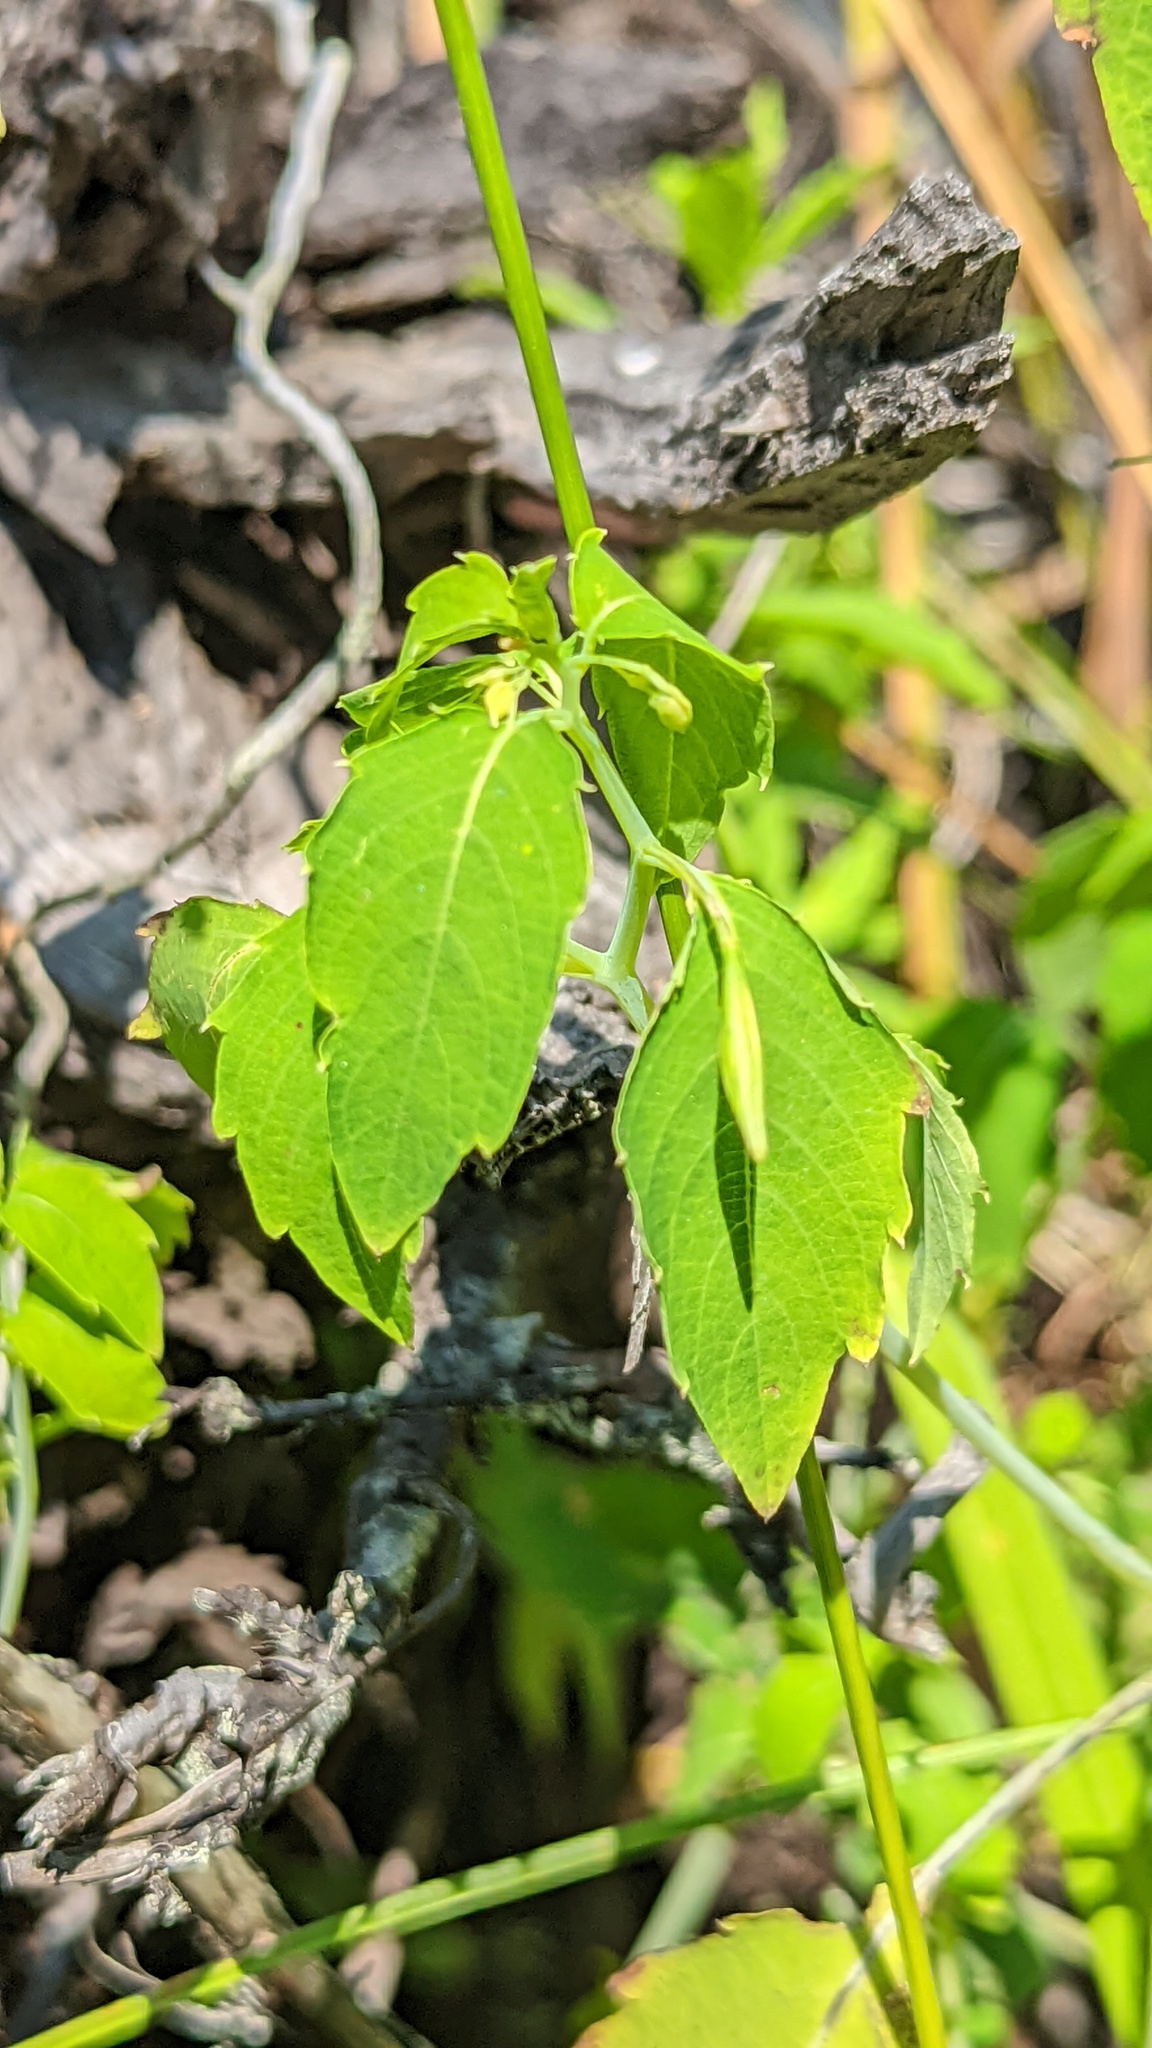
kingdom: Plantae
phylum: Tracheophyta
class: Magnoliopsida
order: Ericales
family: Balsaminaceae
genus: Impatiens
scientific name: Impatiens capensis
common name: Orange balsam
